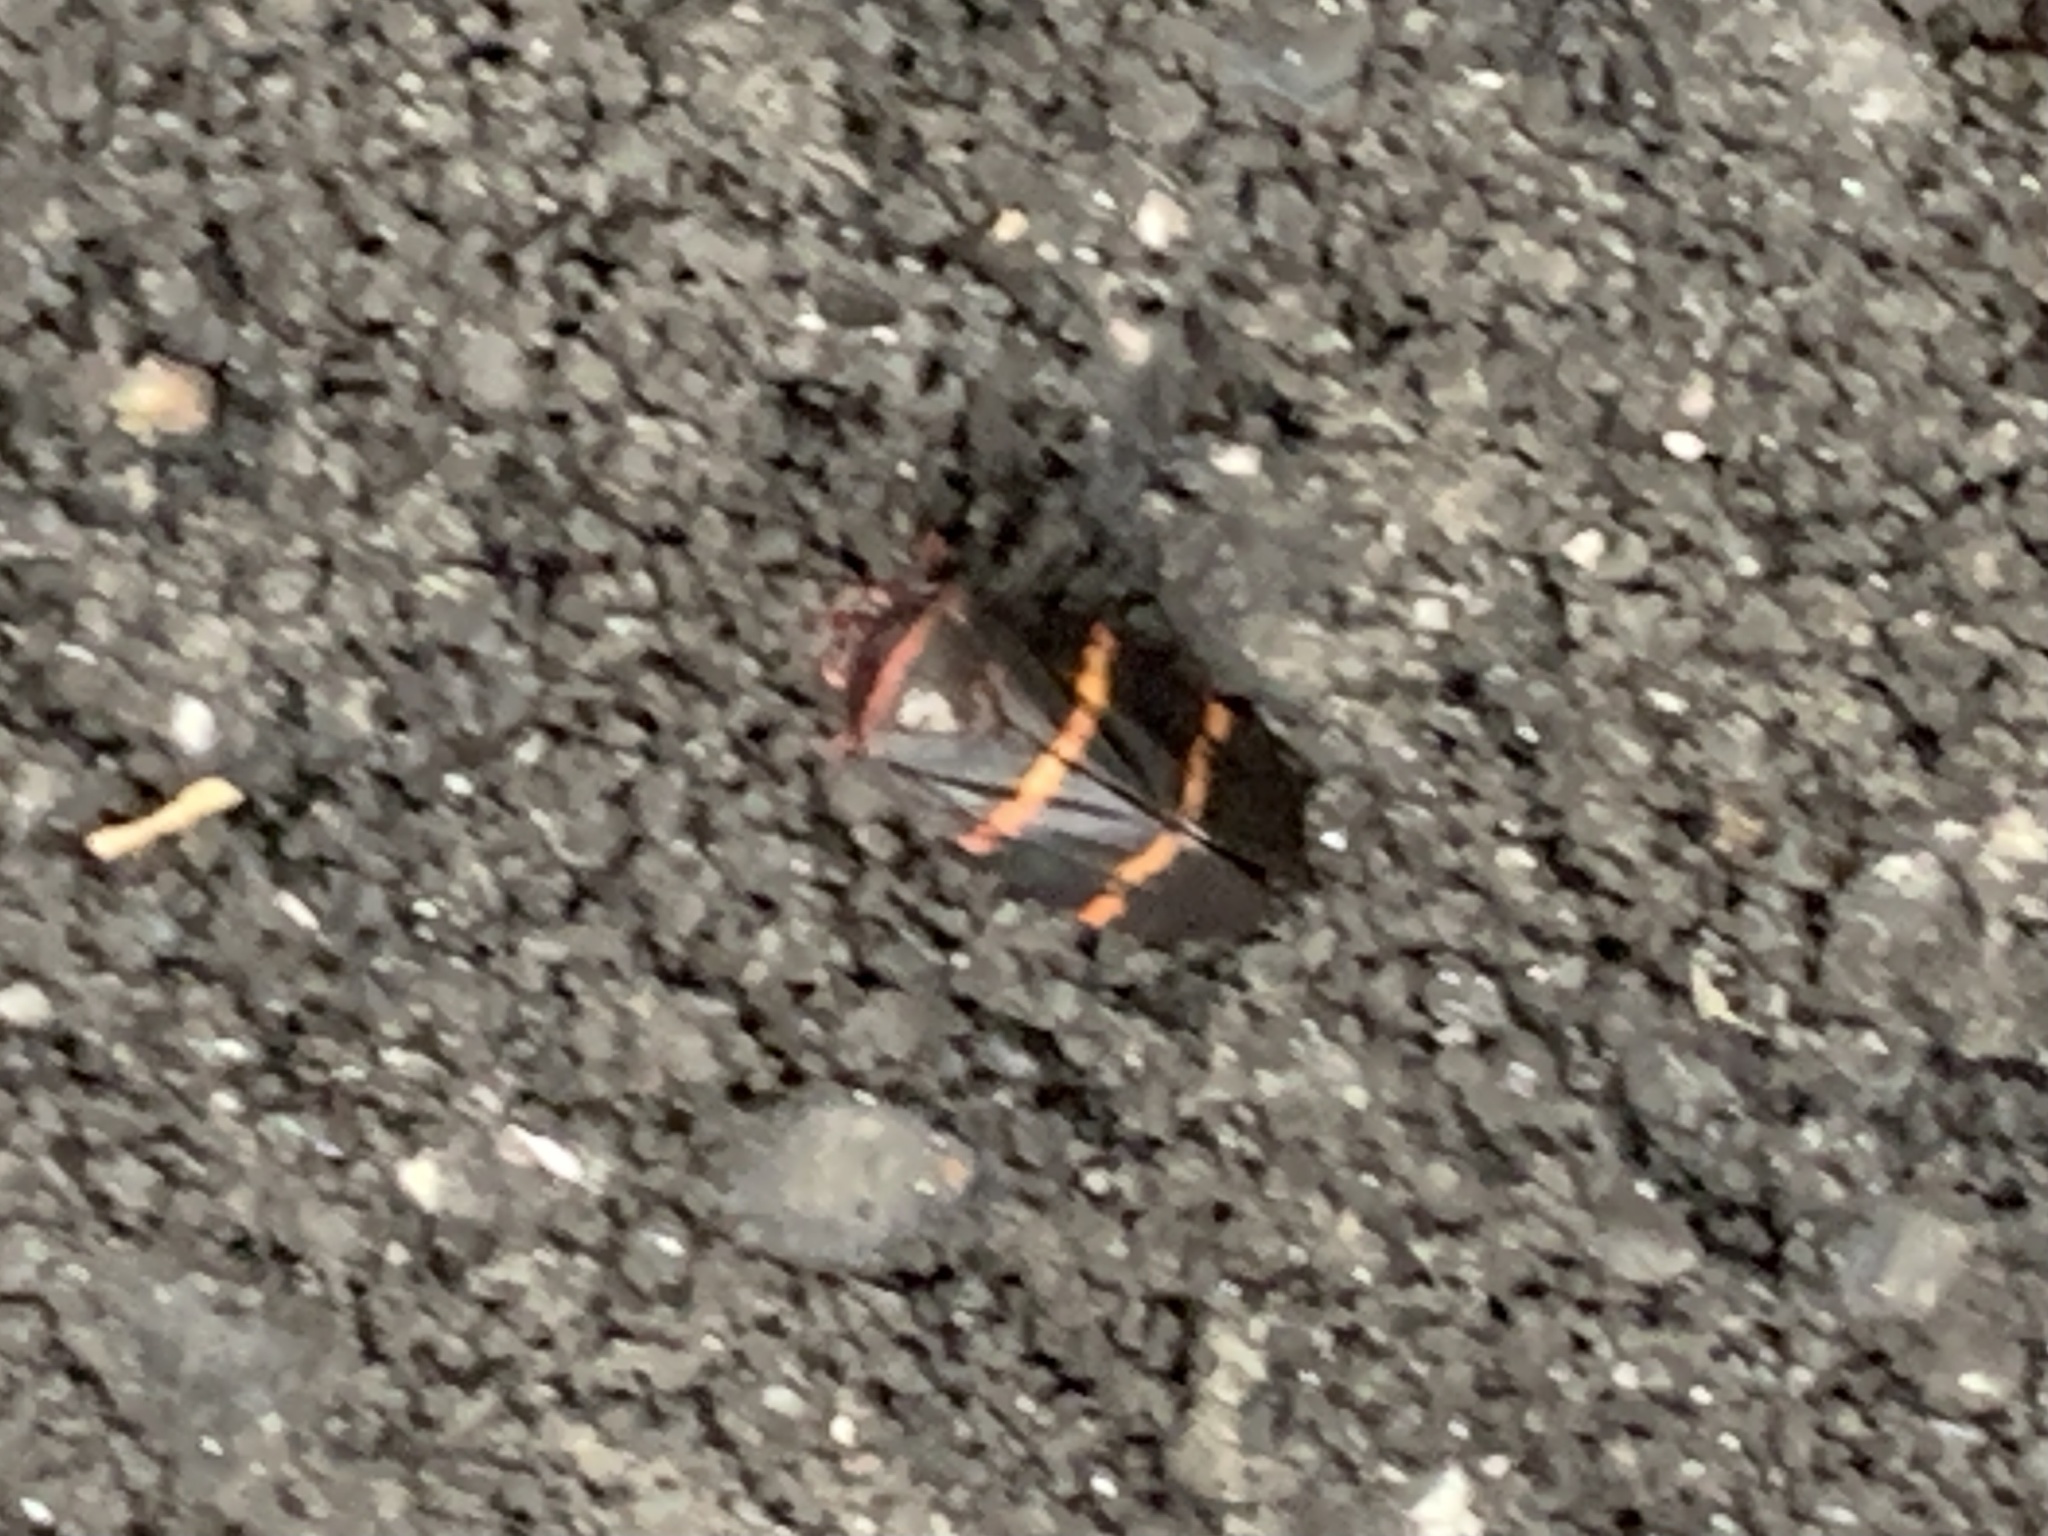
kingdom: Animalia
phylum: Arthropoda
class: Insecta
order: Hemiptera
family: Cercopidae
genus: Prosapia
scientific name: Prosapia bicincta
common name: Twolined spittlebug
